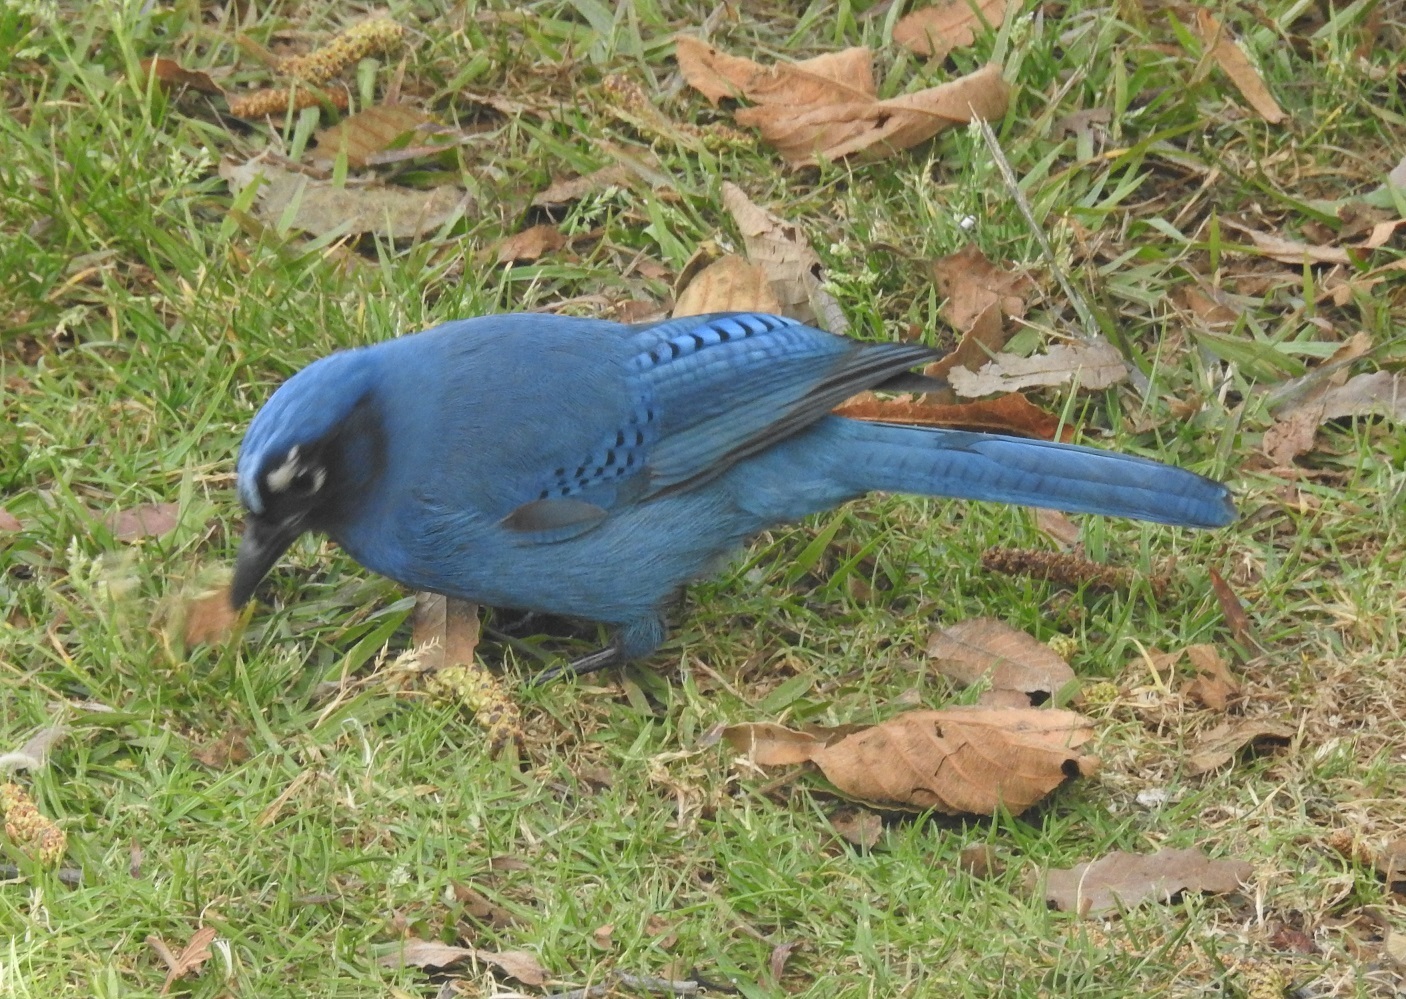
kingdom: Animalia
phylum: Chordata
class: Aves
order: Passeriformes
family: Corvidae
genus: Cyanocitta
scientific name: Cyanocitta stelleri
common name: Steller's jay
